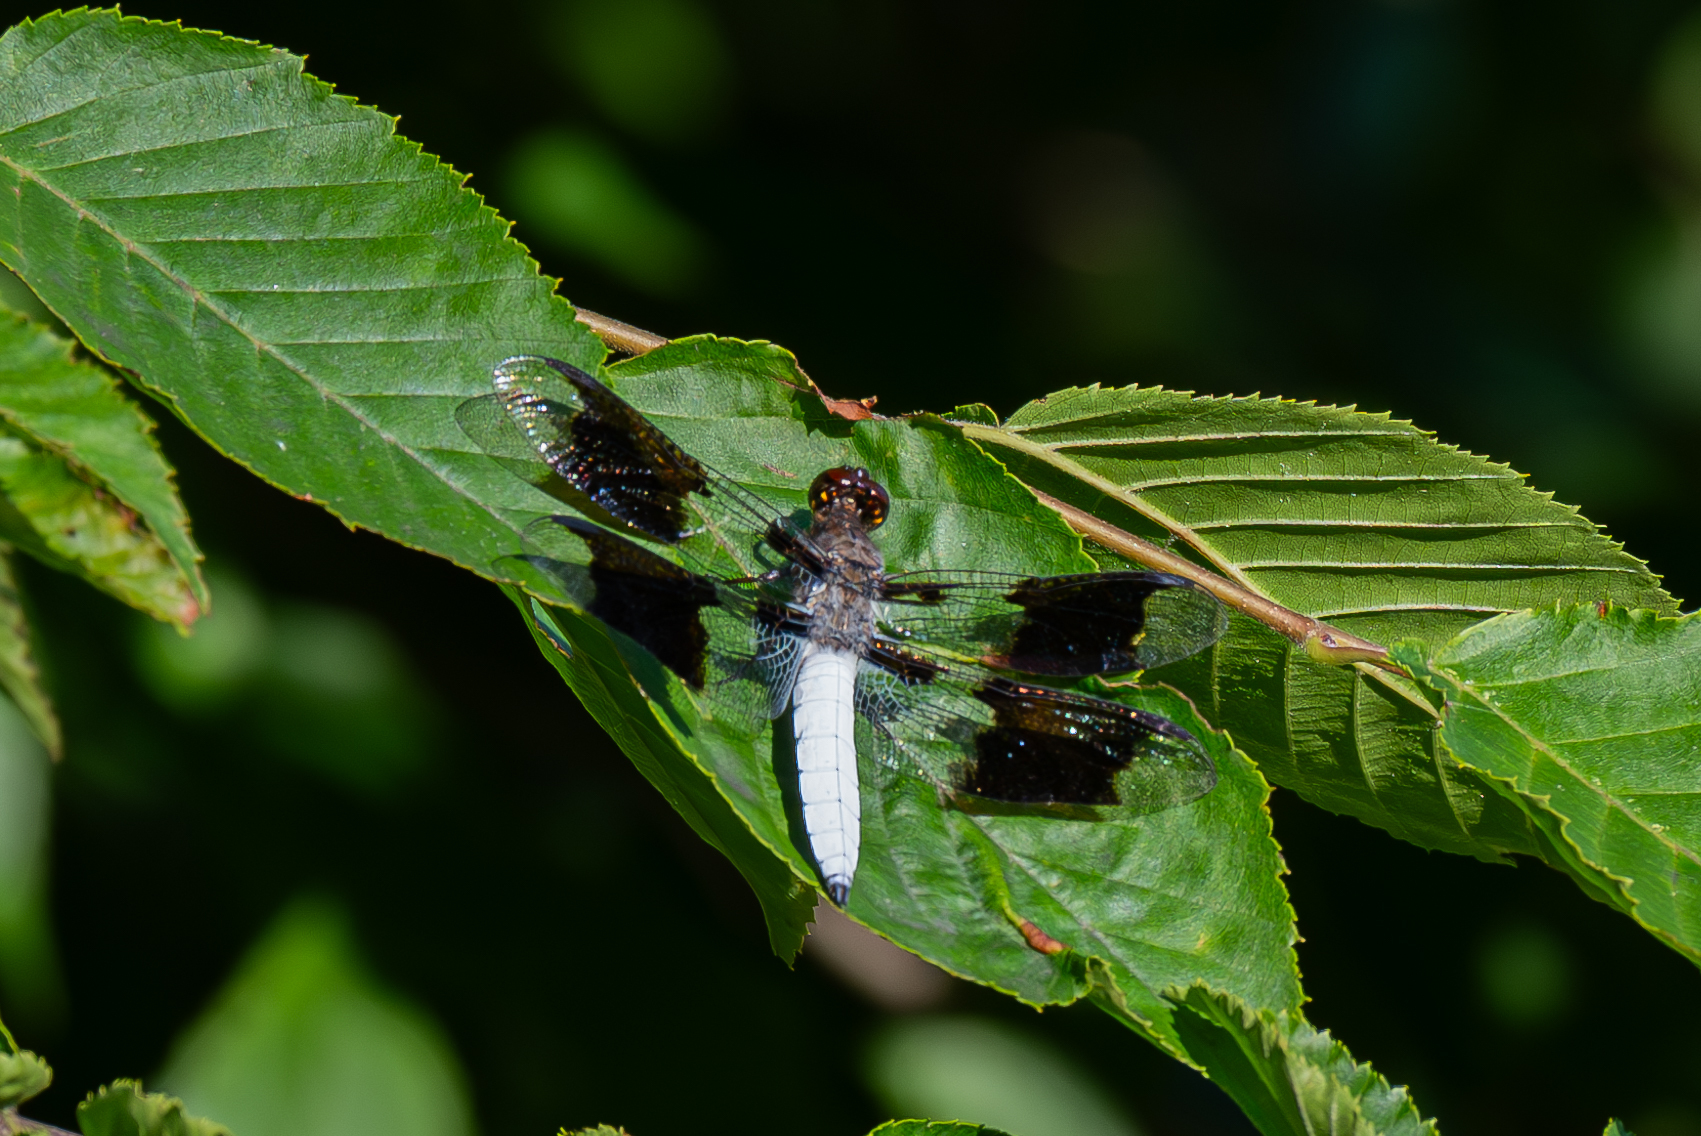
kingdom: Animalia
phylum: Arthropoda
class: Insecta
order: Odonata
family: Libellulidae
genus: Plathemis
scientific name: Plathemis lydia
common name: Common whitetail
